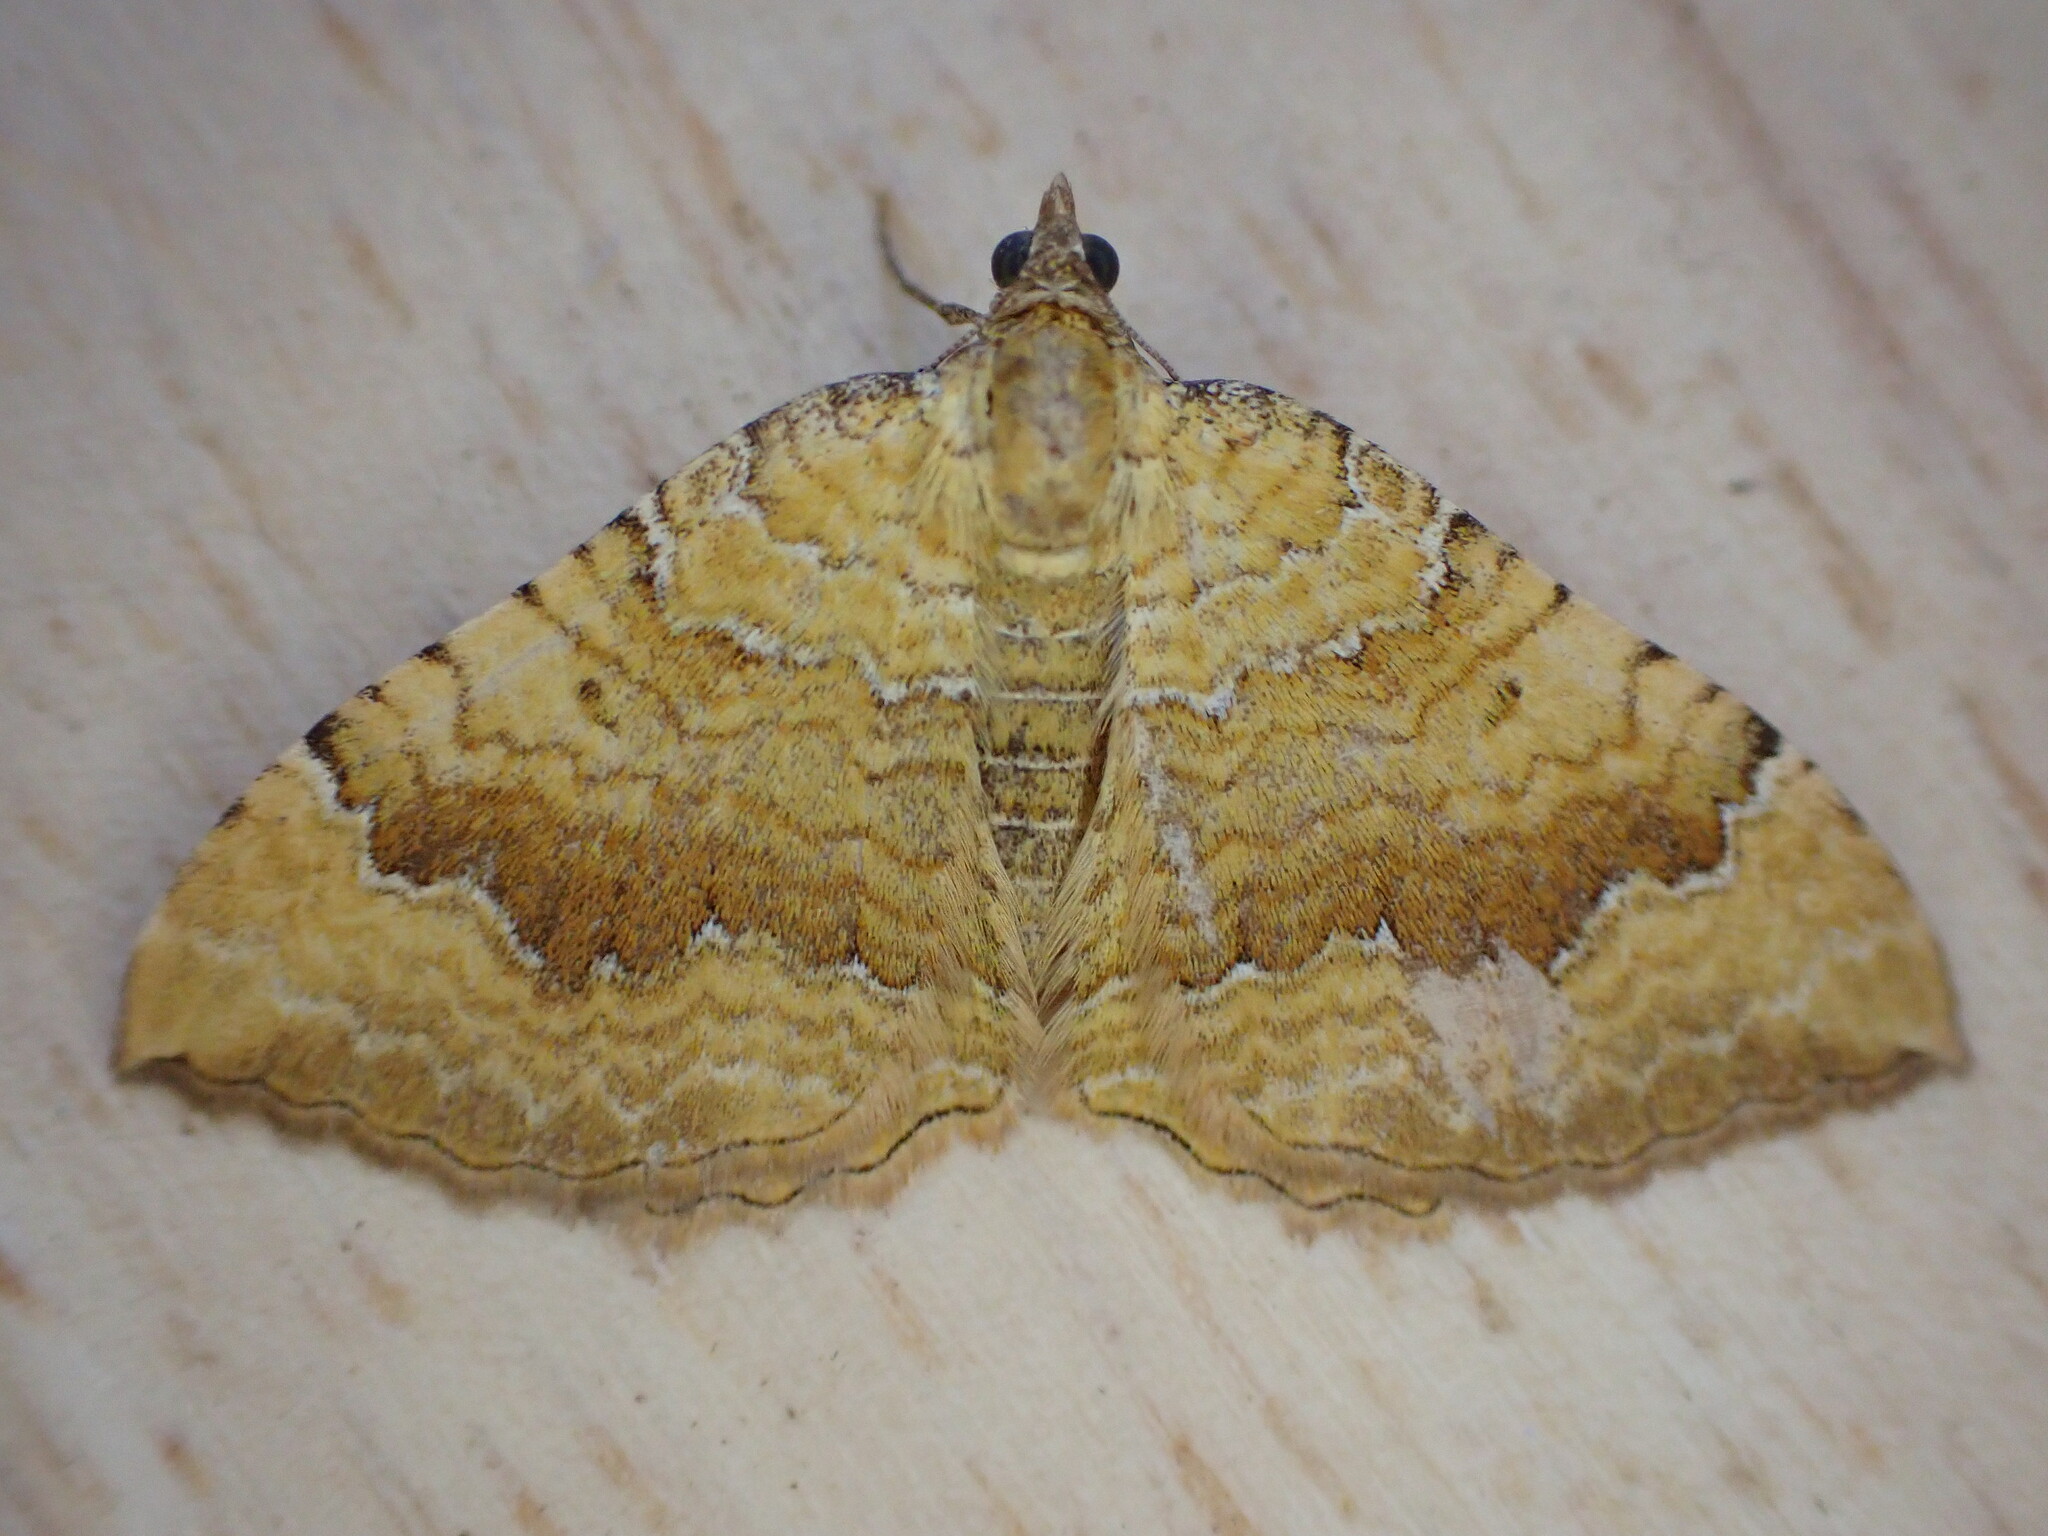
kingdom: Animalia
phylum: Arthropoda
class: Insecta
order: Lepidoptera
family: Geometridae
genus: Camptogramma
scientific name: Camptogramma bilineata
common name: Yellow shell
